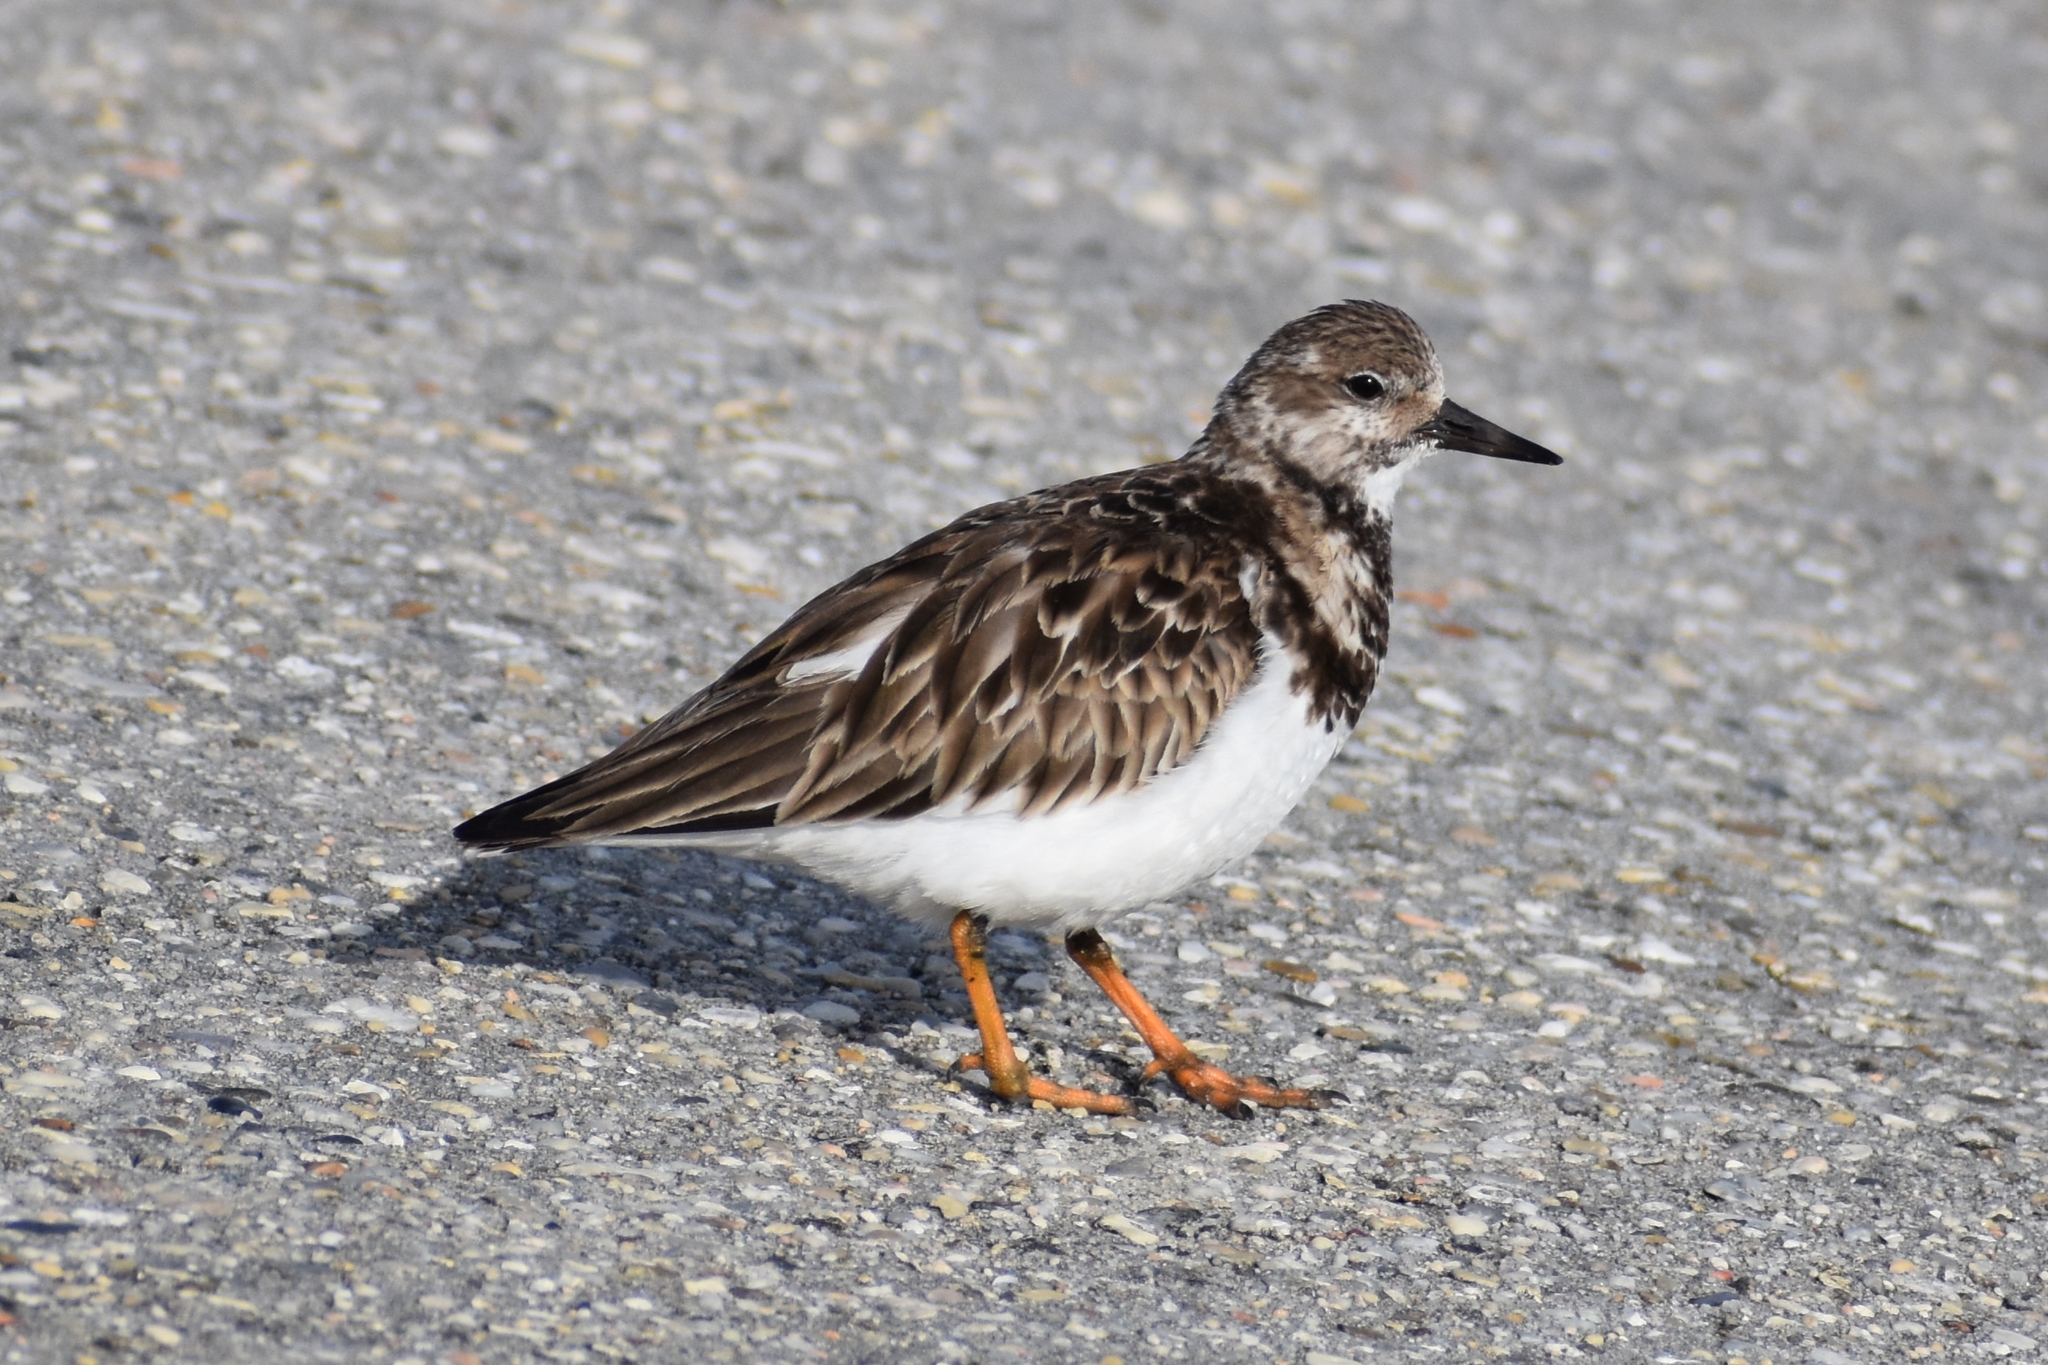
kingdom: Animalia
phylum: Chordata
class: Aves
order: Charadriiformes
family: Scolopacidae
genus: Arenaria
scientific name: Arenaria interpres
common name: Ruddy turnstone
